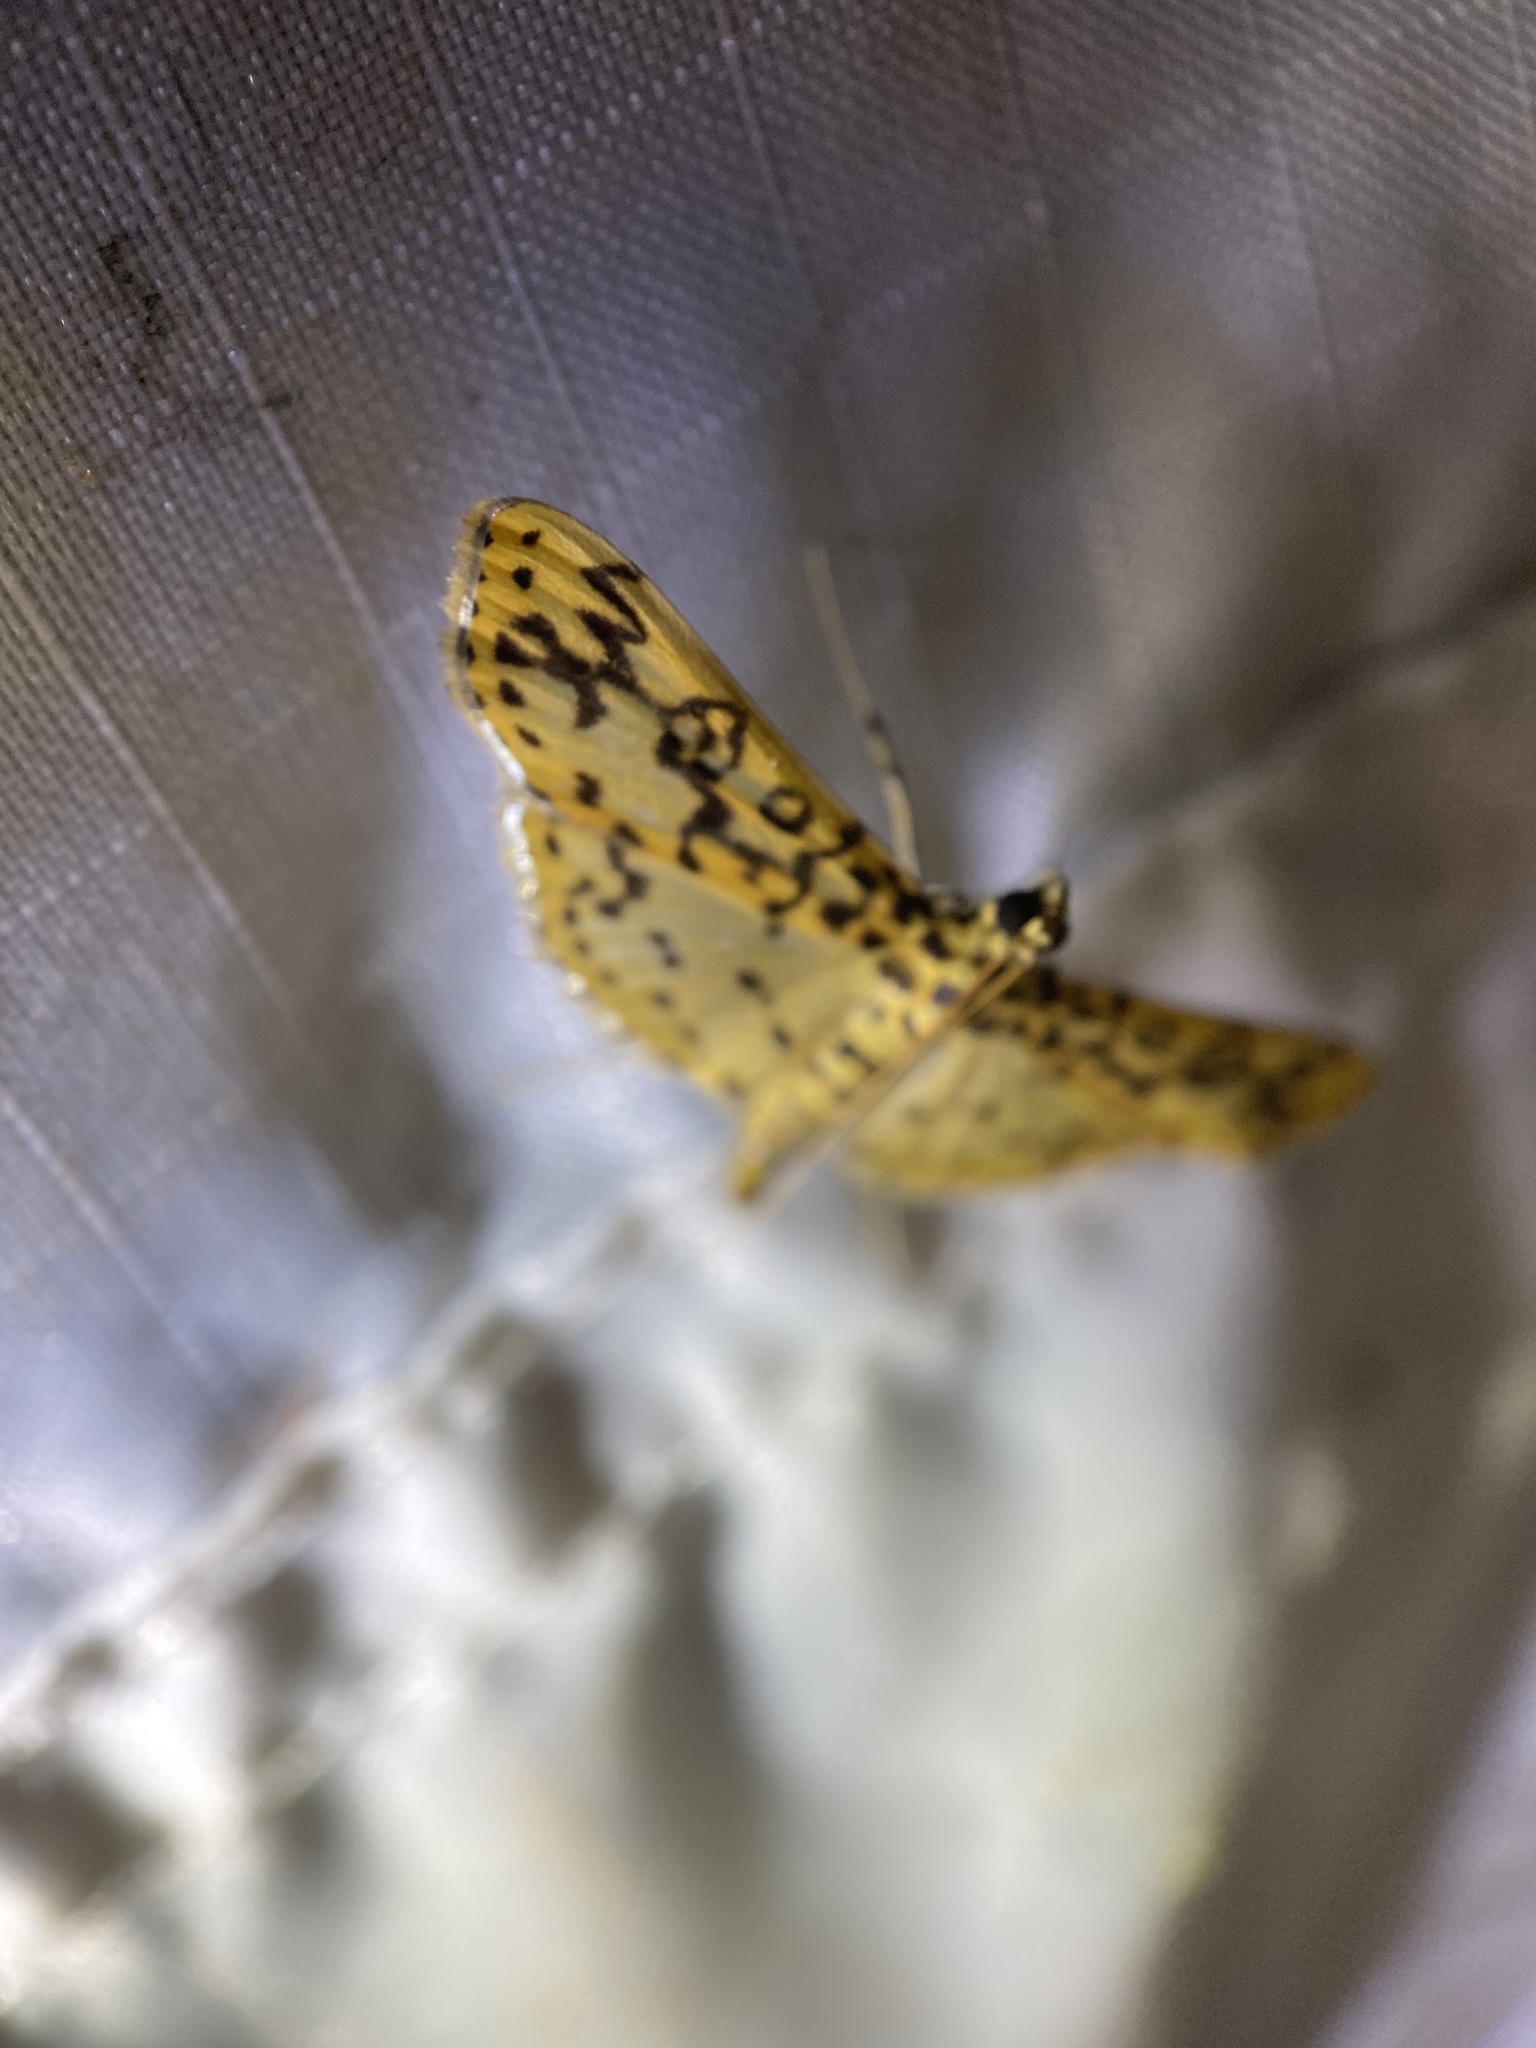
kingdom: Animalia
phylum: Arthropoda
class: Insecta
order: Lepidoptera
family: Crambidae
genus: Asturodes
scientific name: Asturodes fimbriauralis
